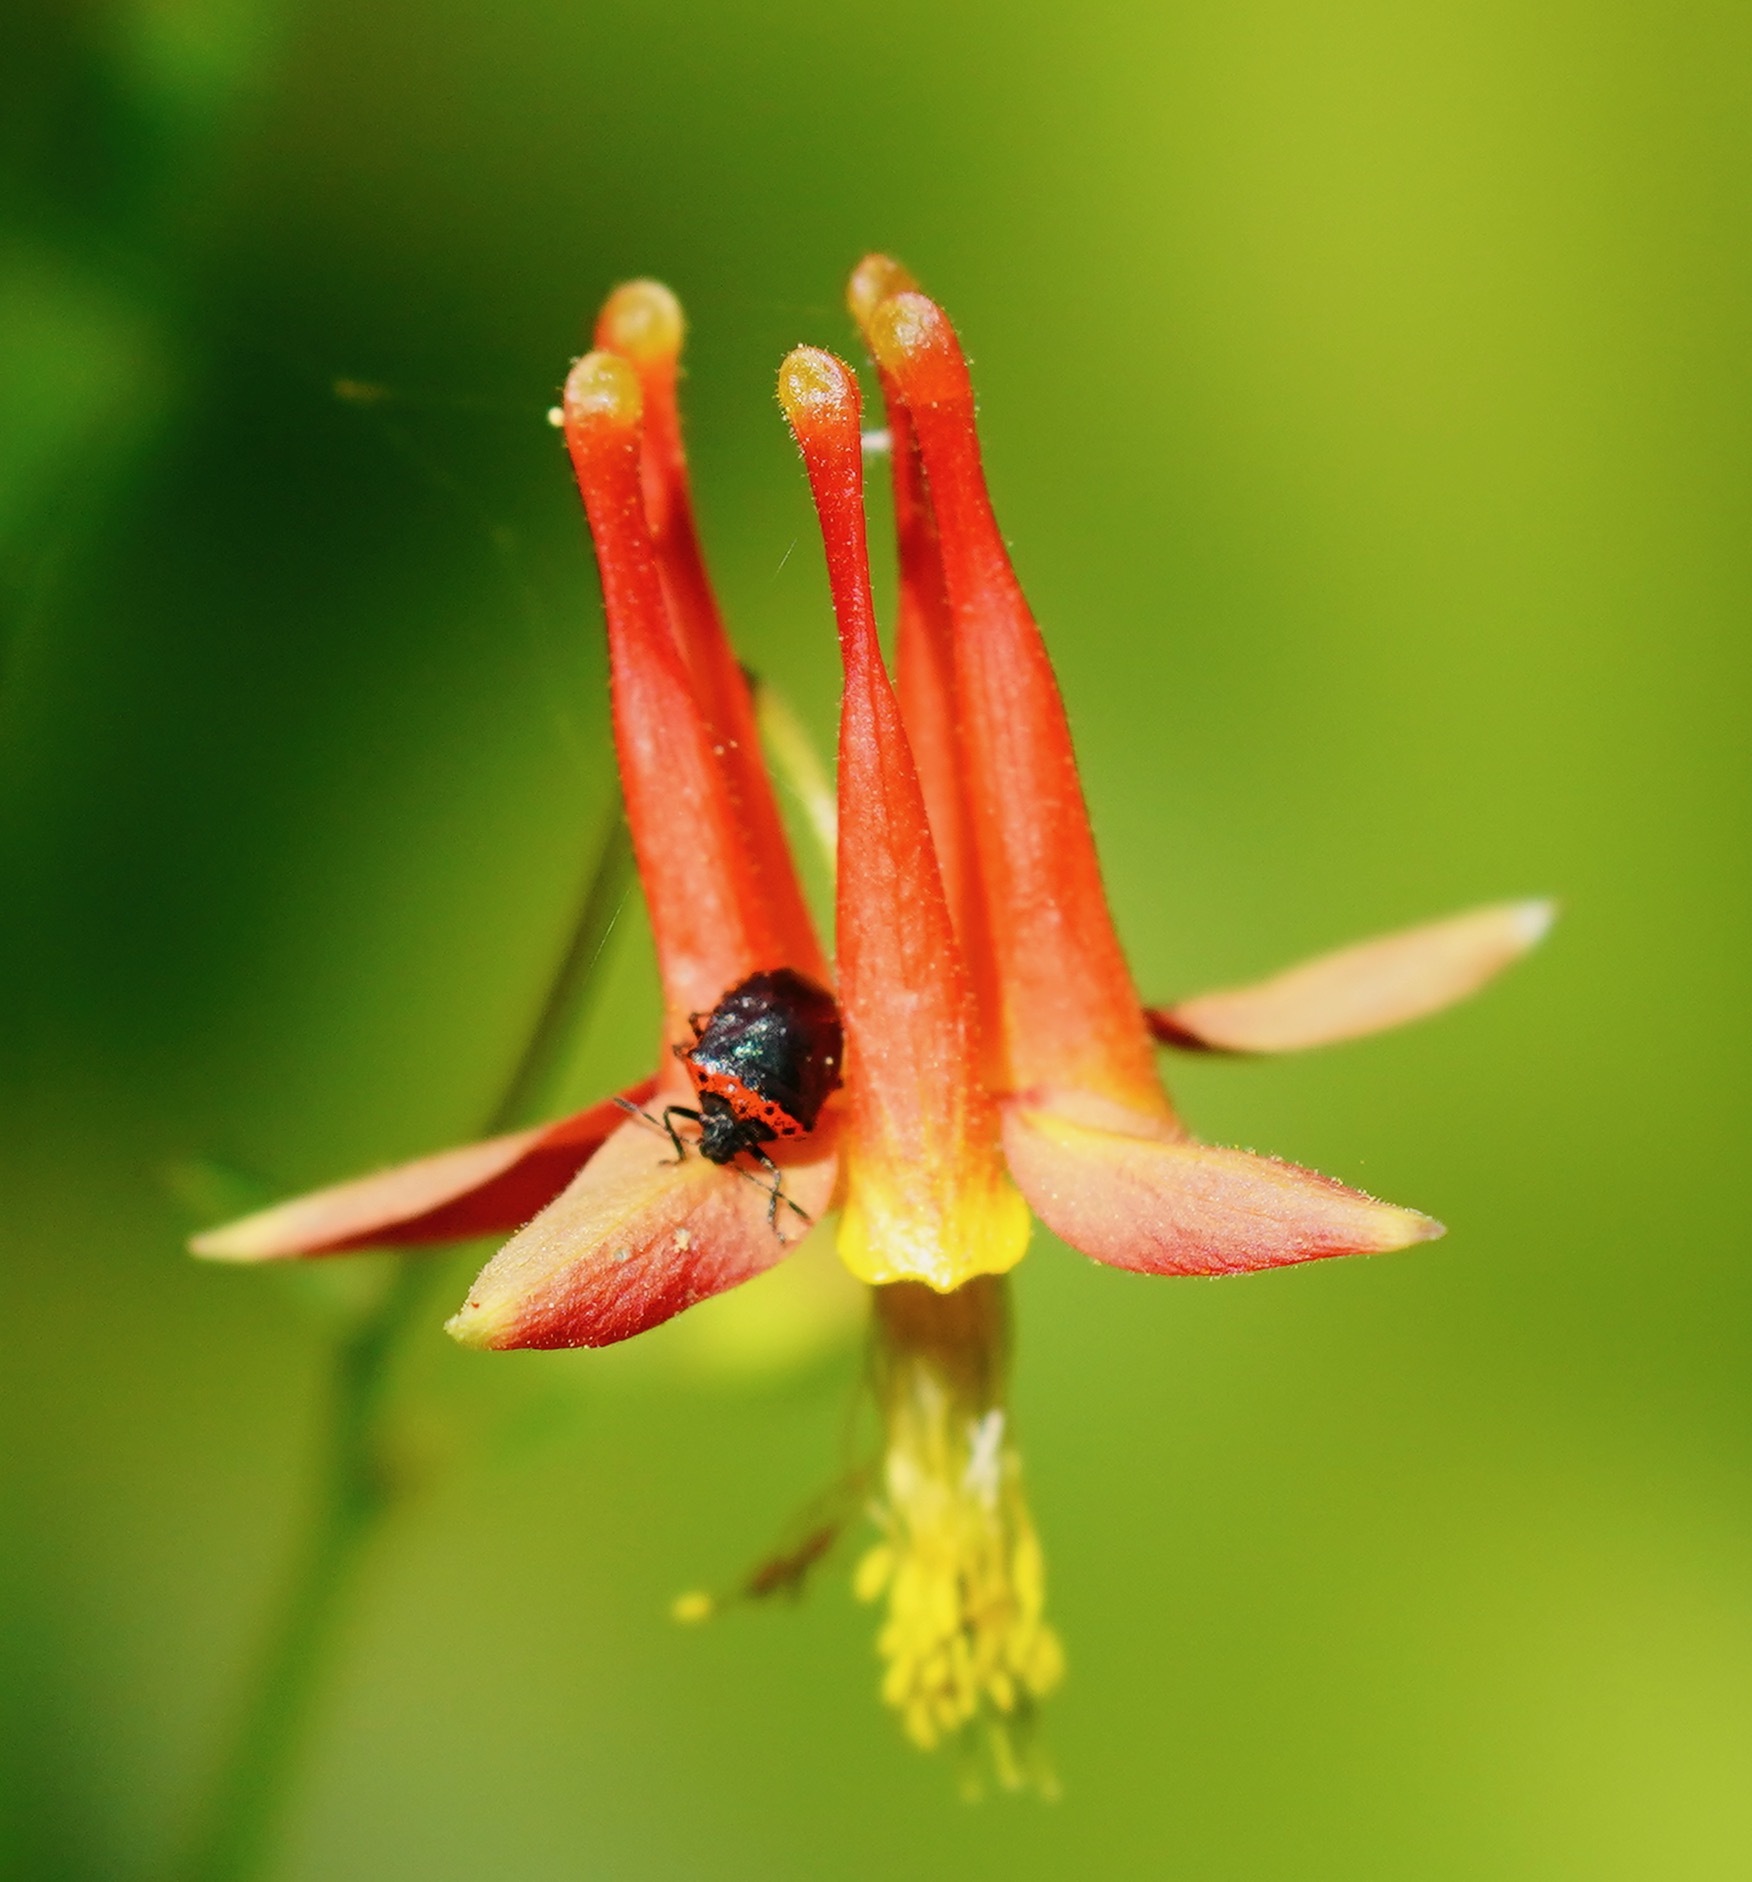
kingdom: Animalia
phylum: Arthropoda
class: Insecta
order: Hemiptera
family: Pentatomidae
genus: Cosmopepla
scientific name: Cosmopepla uhleri
